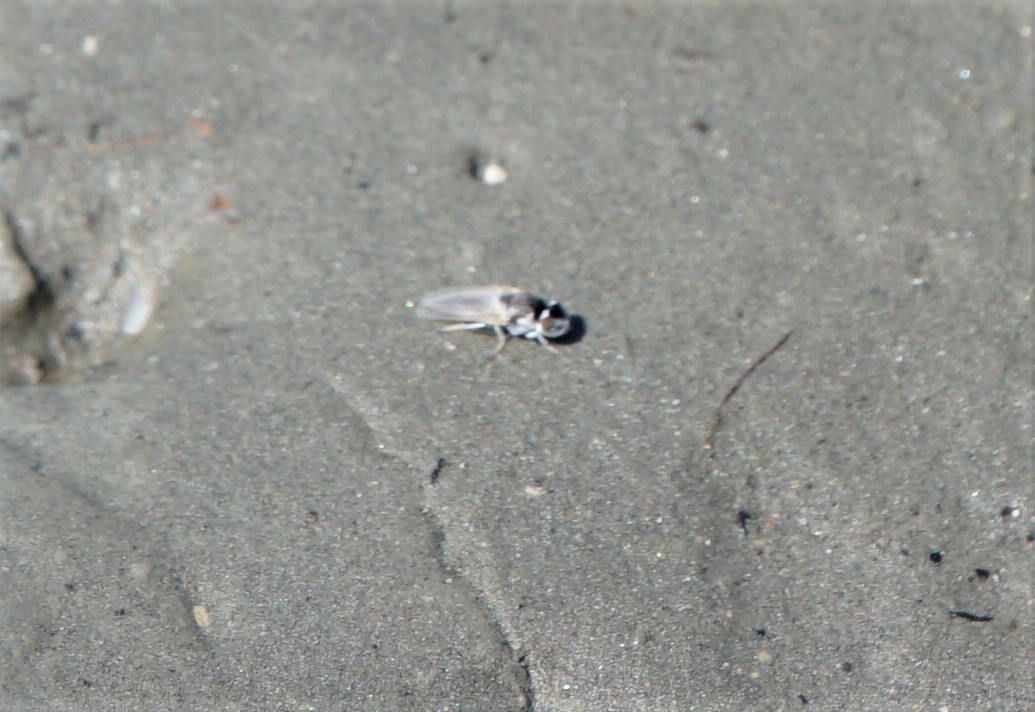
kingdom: Animalia
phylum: Arthropoda
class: Insecta
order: Diptera
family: Ephydridae
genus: Lipochaeta
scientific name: Lipochaeta ranica
